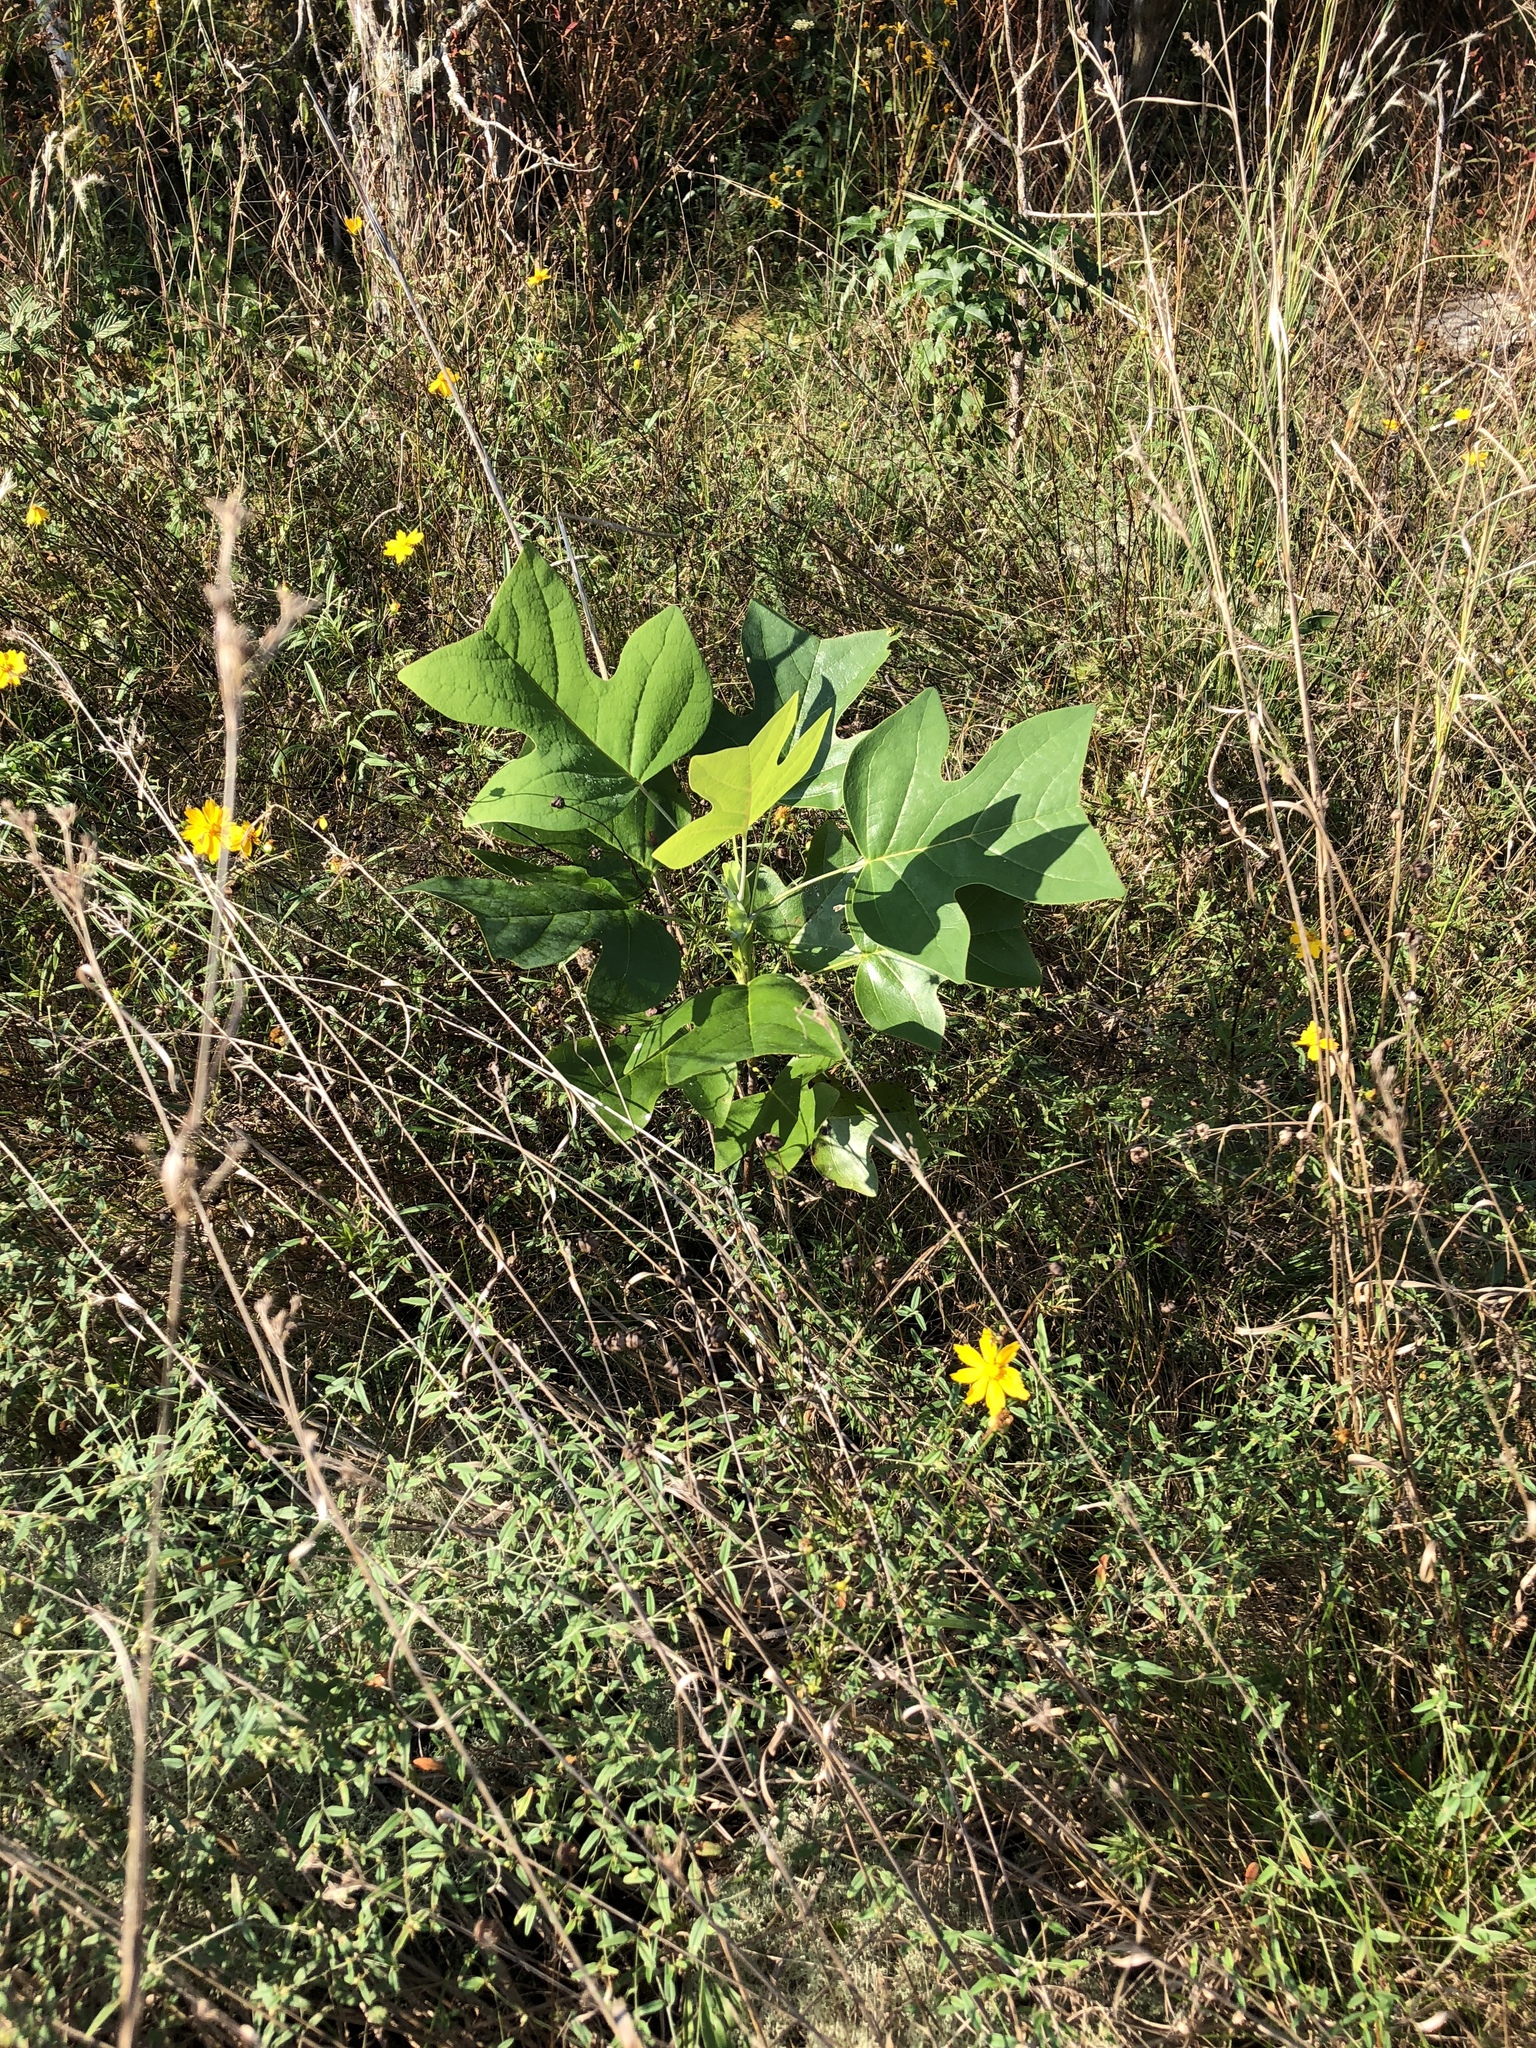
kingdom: Plantae
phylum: Tracheophyta
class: Magnoliopsida
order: Magnoliales
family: Magnoliaceae
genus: Liriodendron
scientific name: Liriodendron tulipifera
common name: Tulip tree
